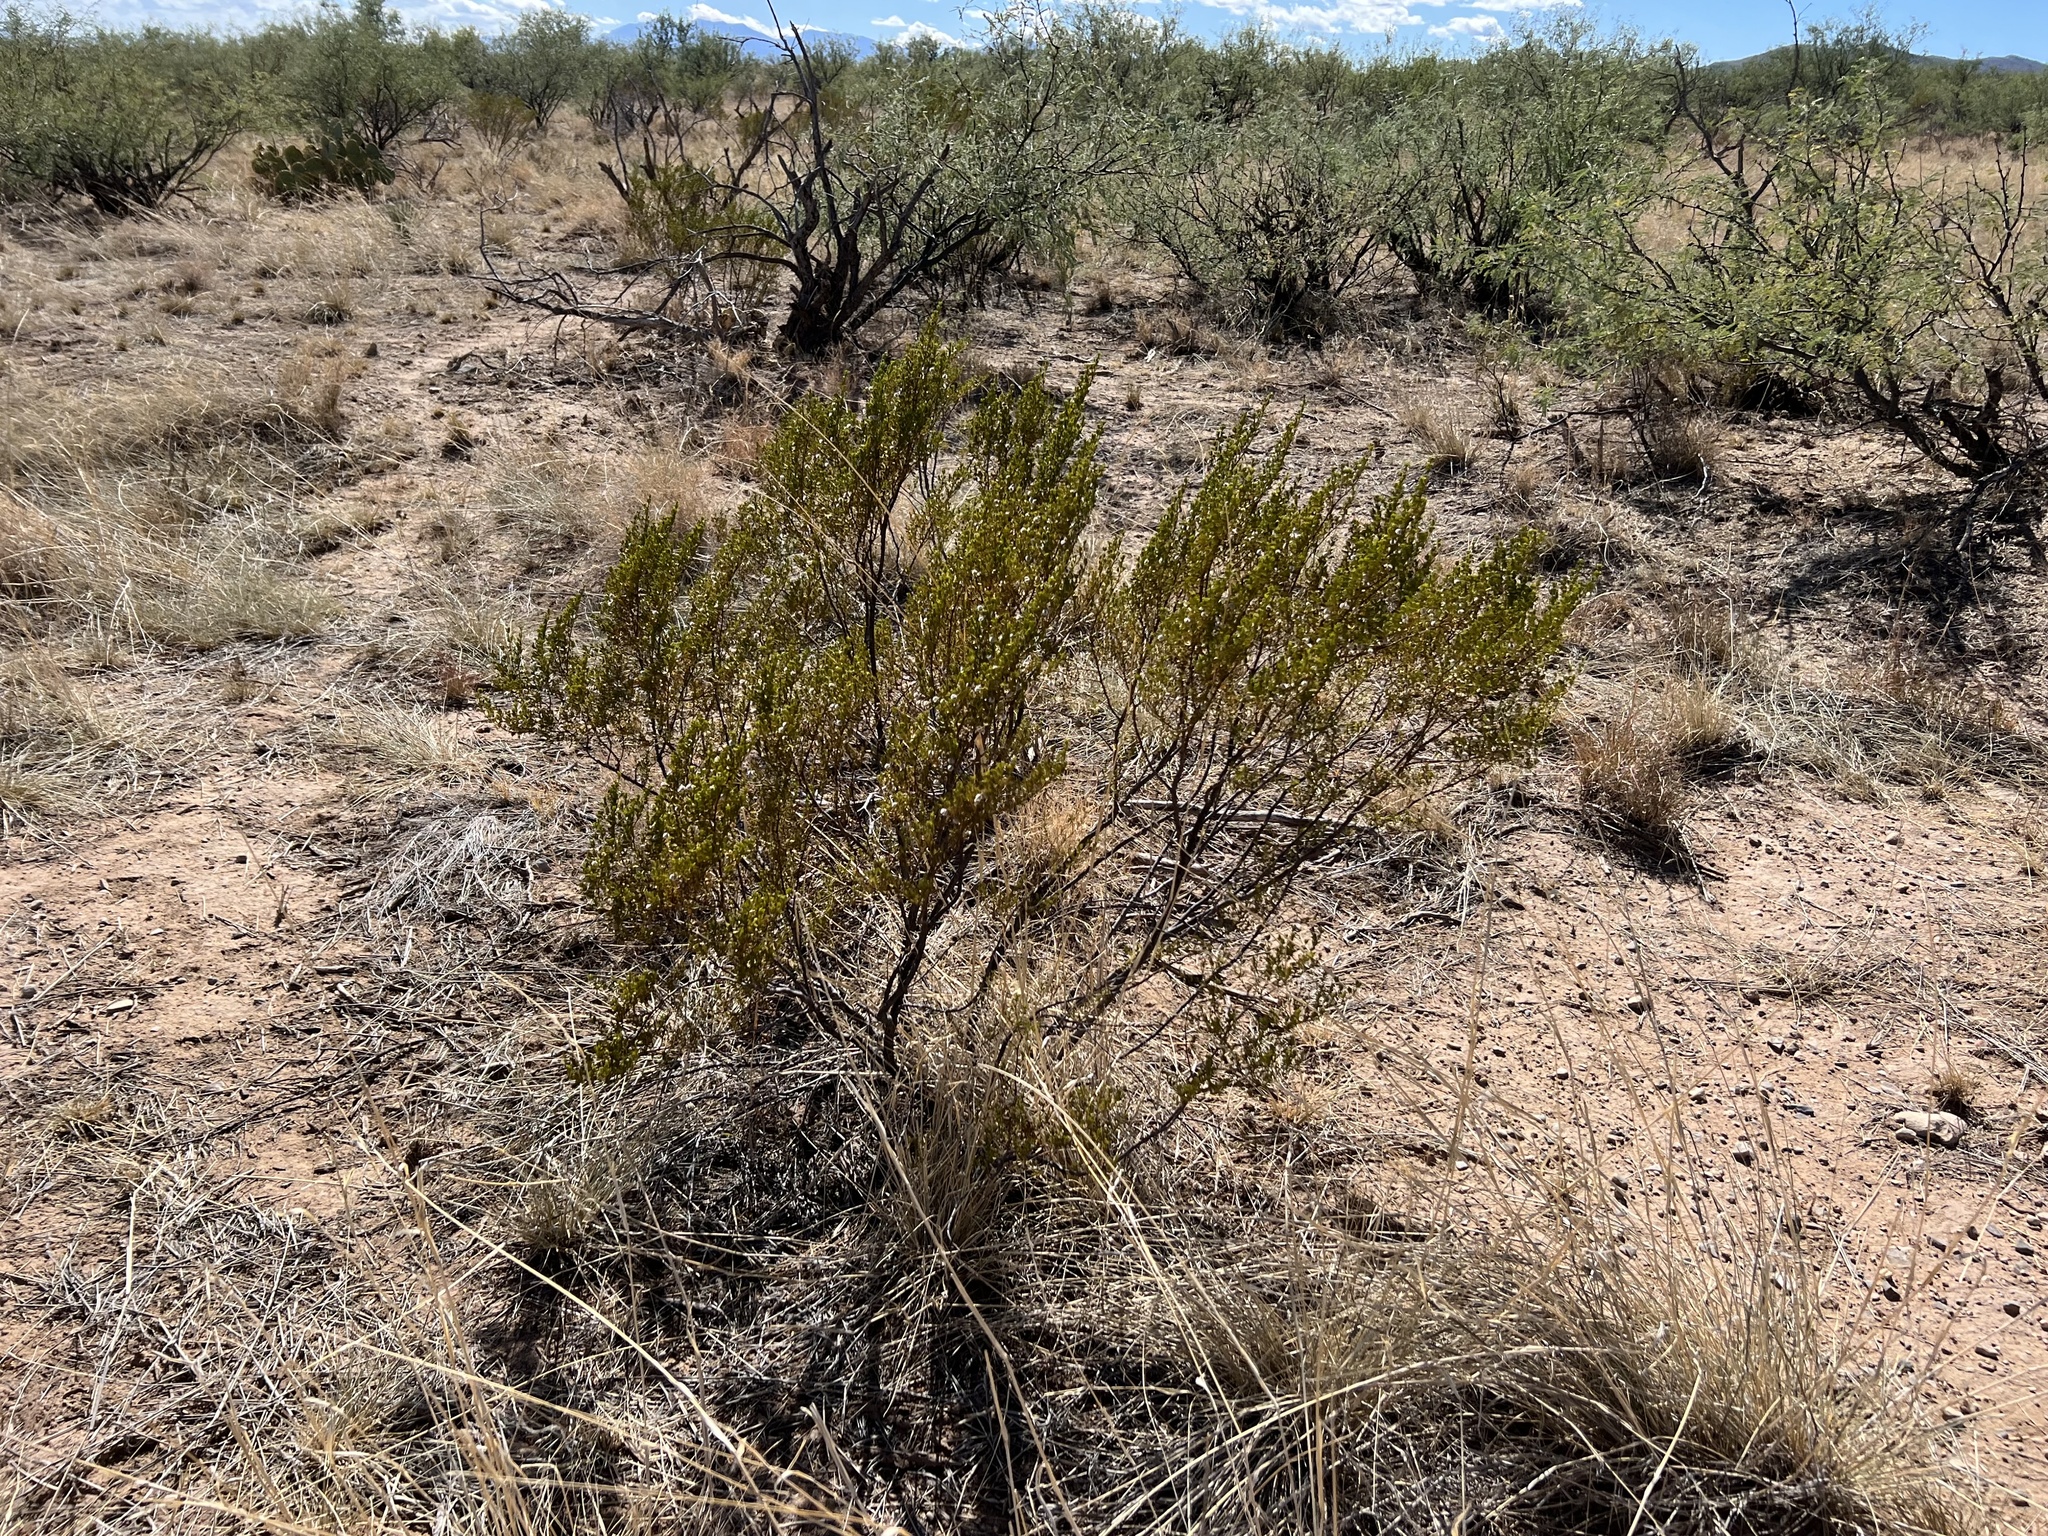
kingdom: Plantae
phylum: Tracheophyta
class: Magnoliopsida
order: Zygophyllales
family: Zygophyllaceae
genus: Larrea
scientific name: Larrea tridentata
